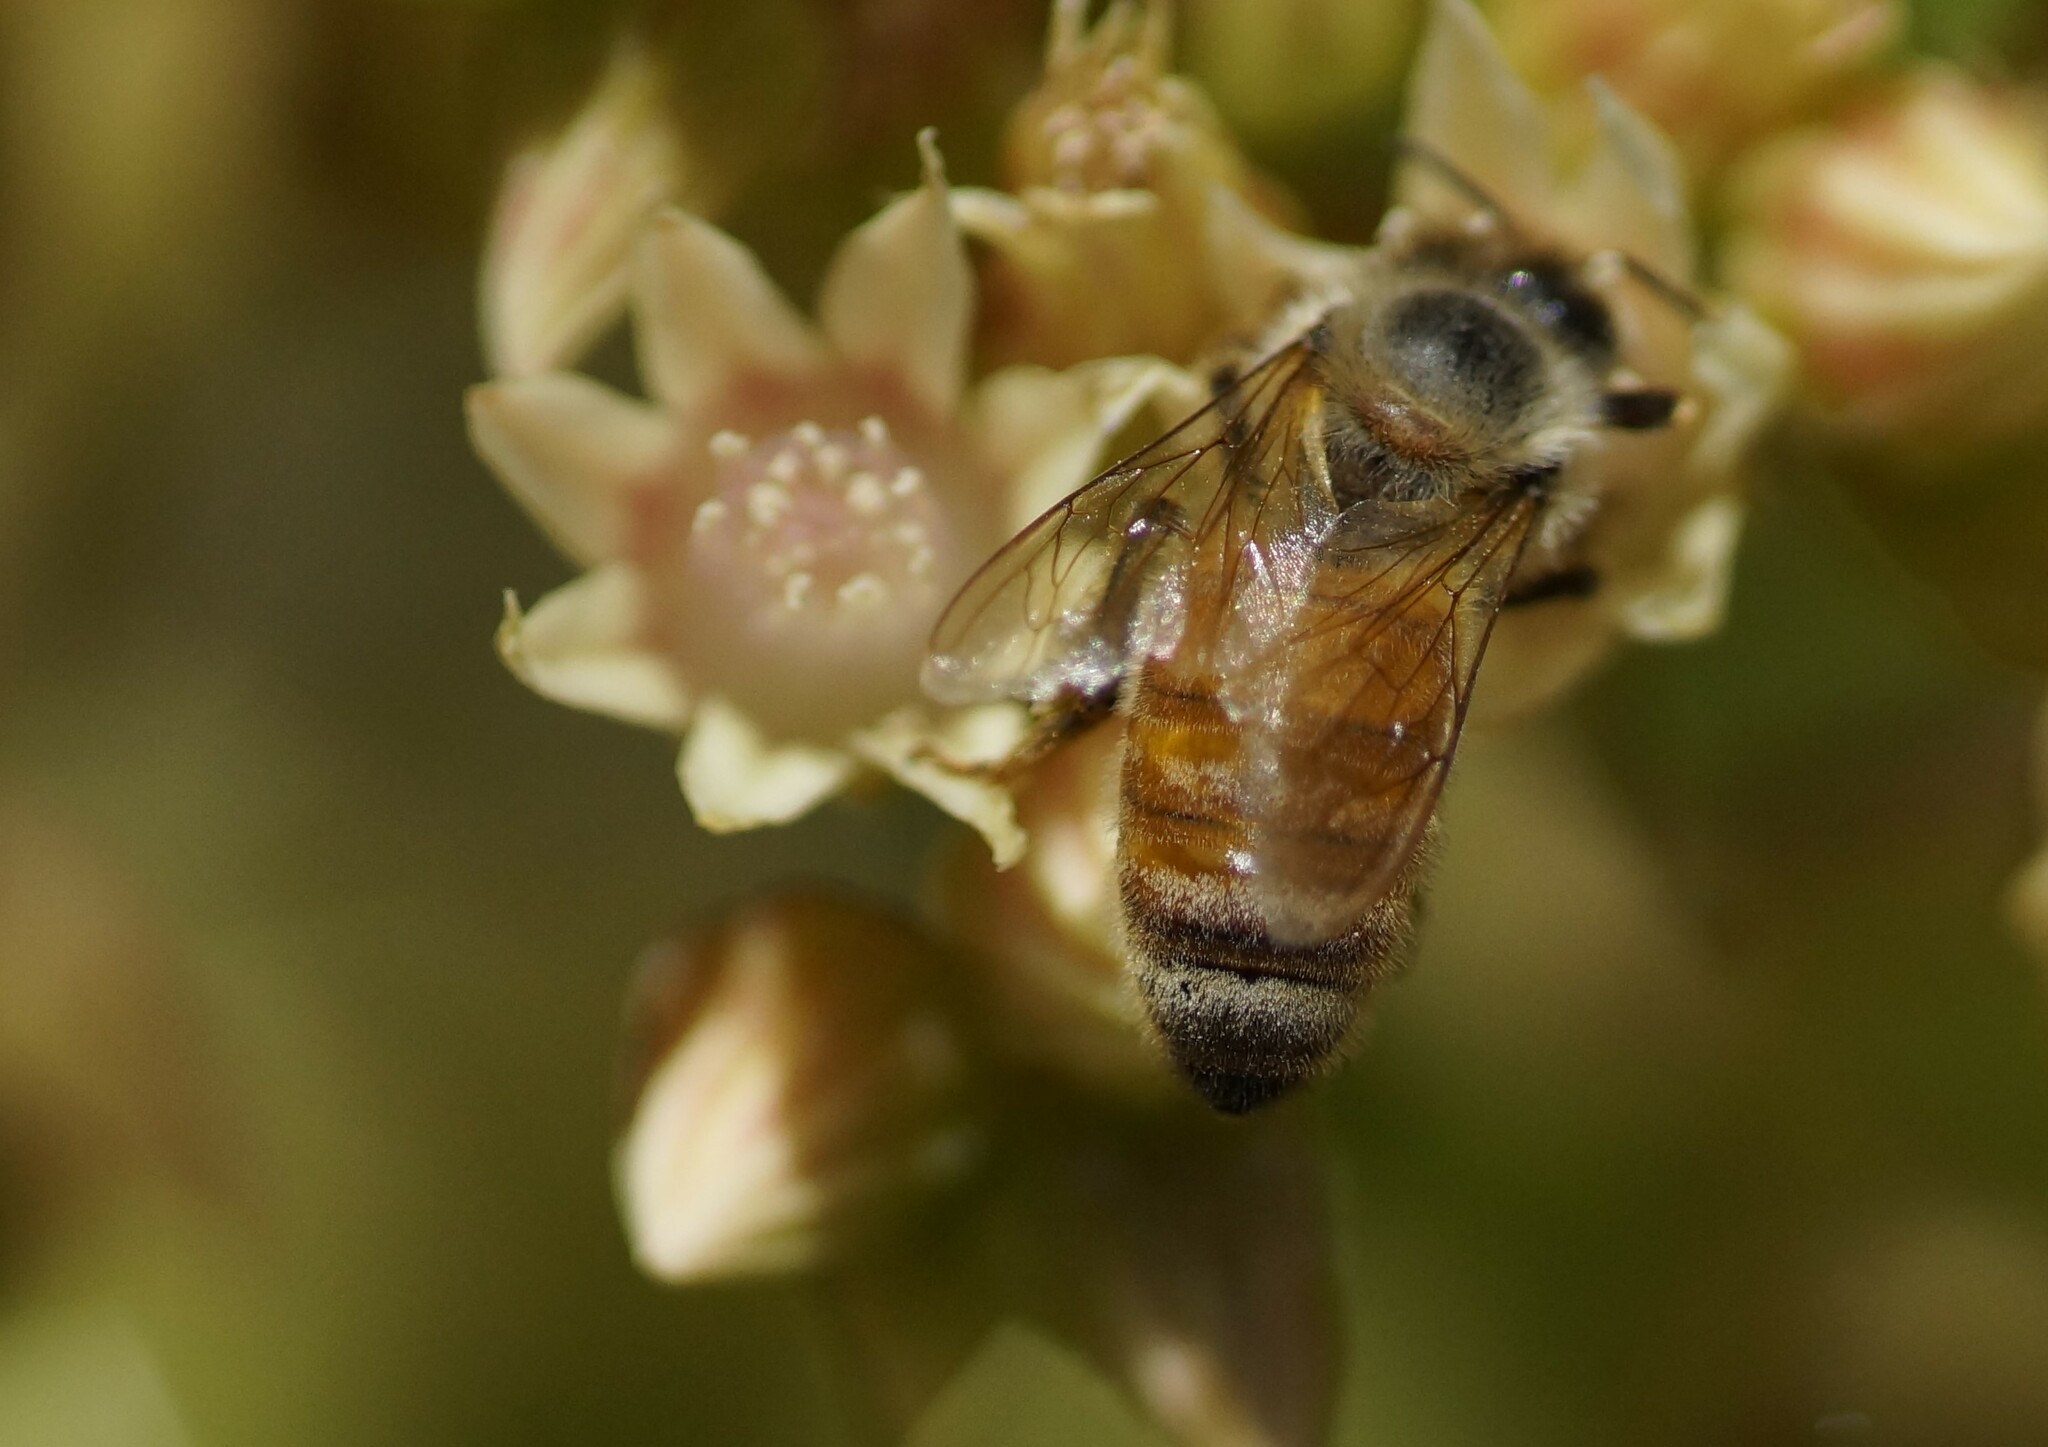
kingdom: Animalia
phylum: Arthropoda
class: Insecta
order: Hymenoptera
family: Apidae
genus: Apis
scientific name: Apis mellifera
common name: Honey bee
